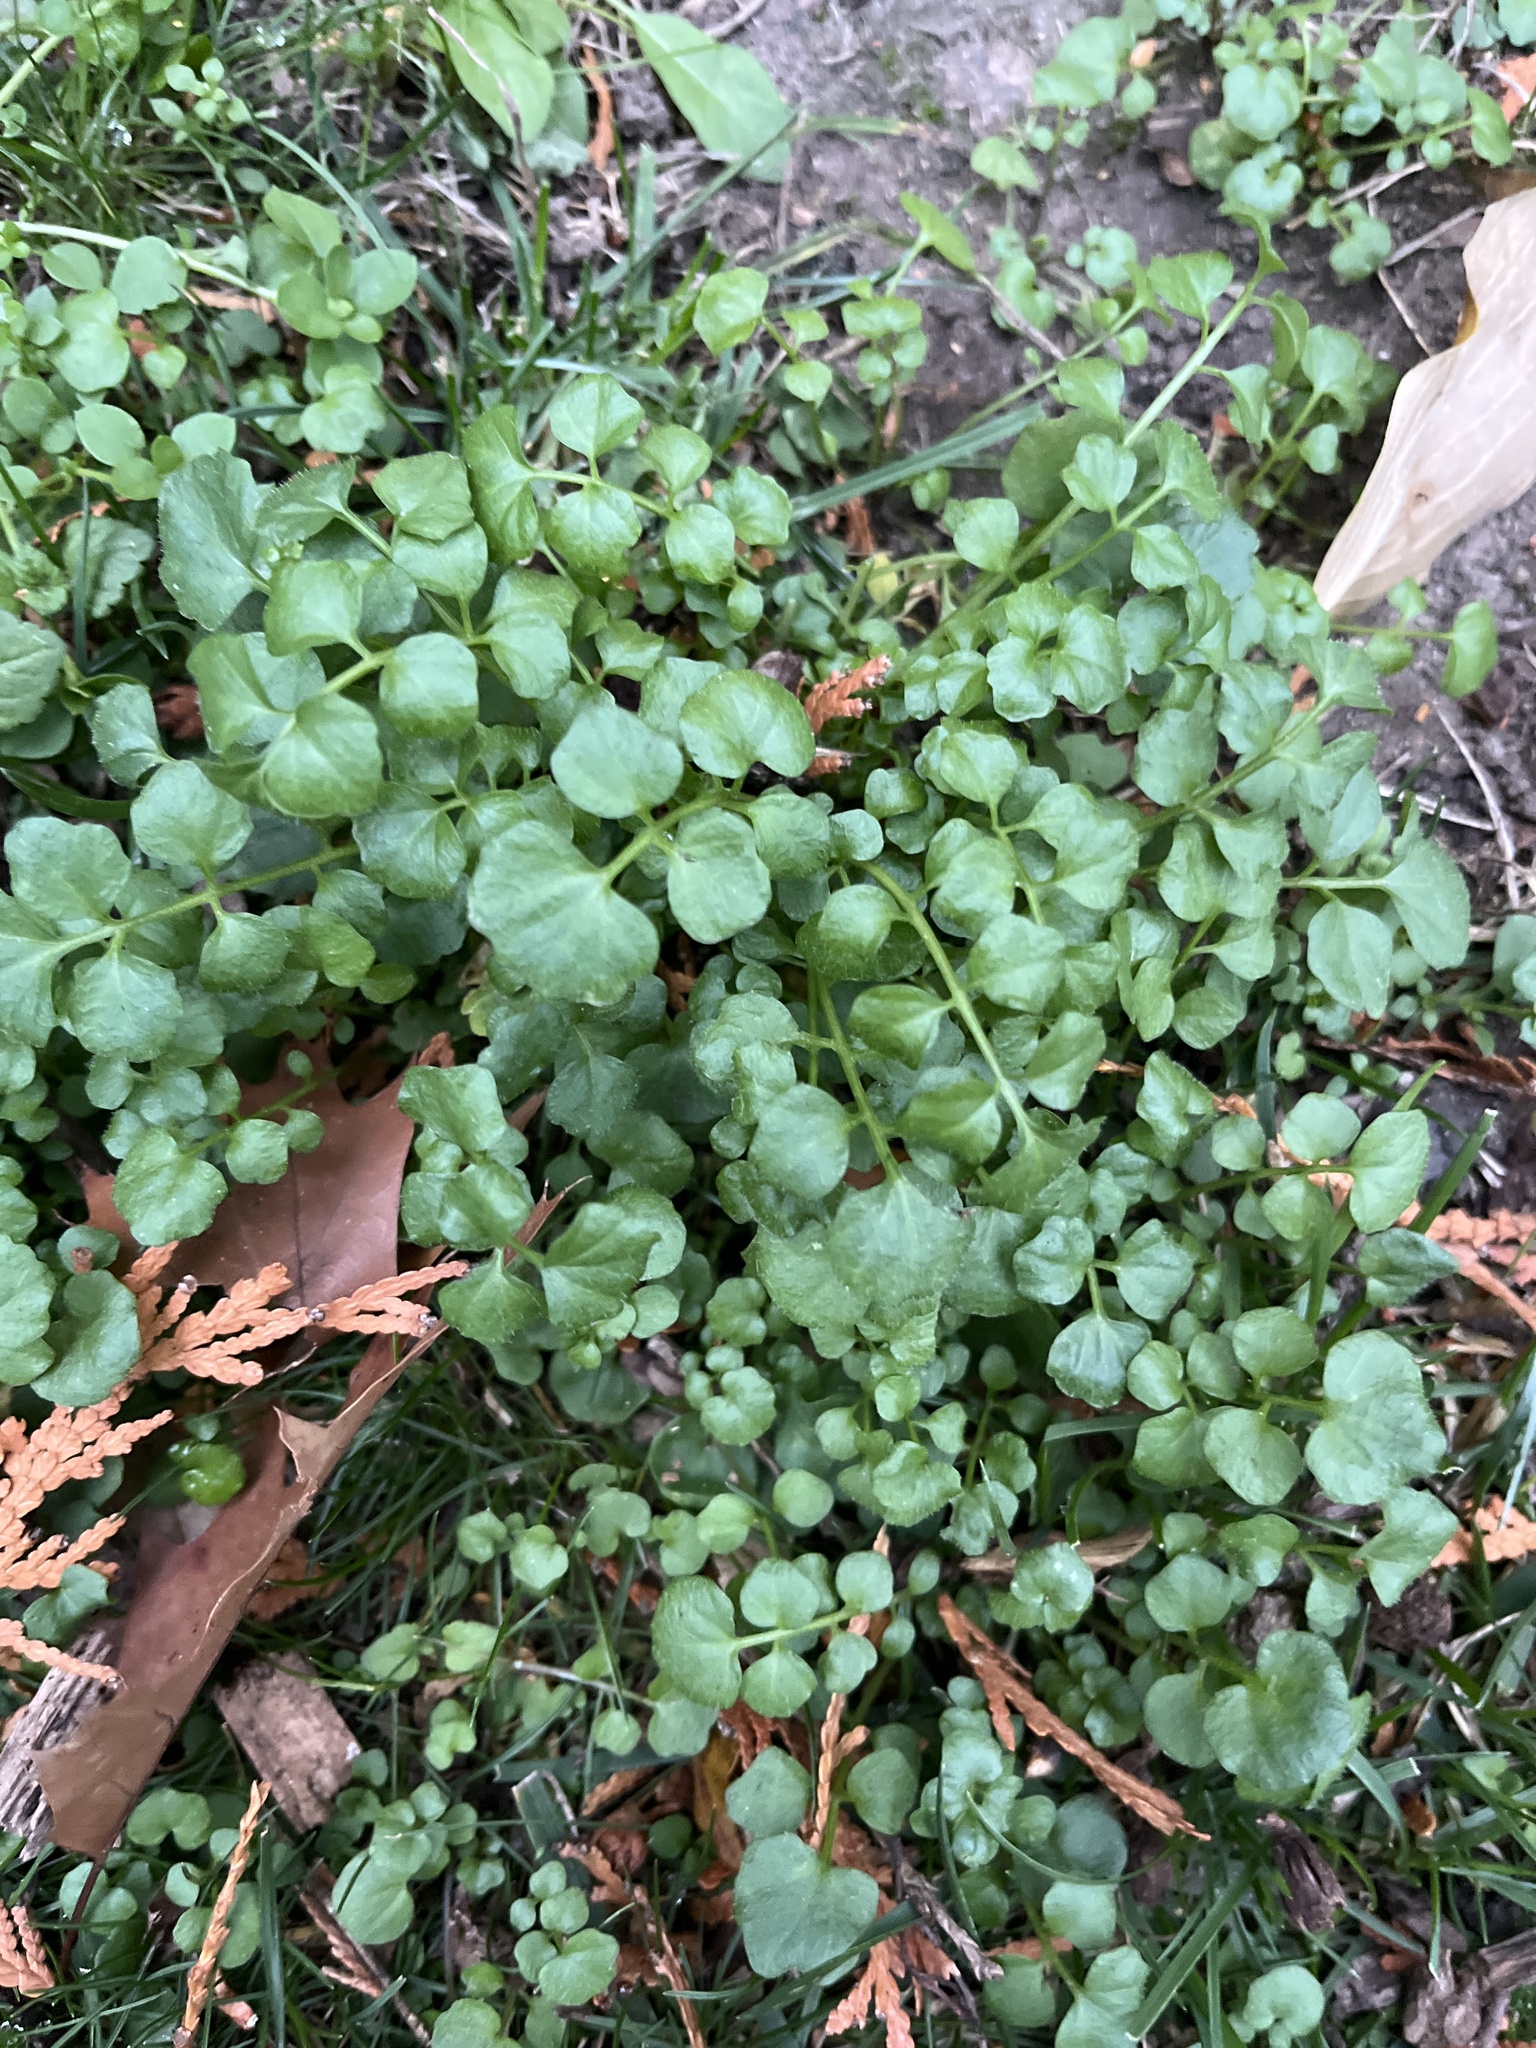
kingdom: Plantae
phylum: Tracheophyta
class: Magnoliopsida
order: Brassicales
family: Brassicaceae
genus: Cardamine
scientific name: Cardamine hirsuta
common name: Hairy bittercress
